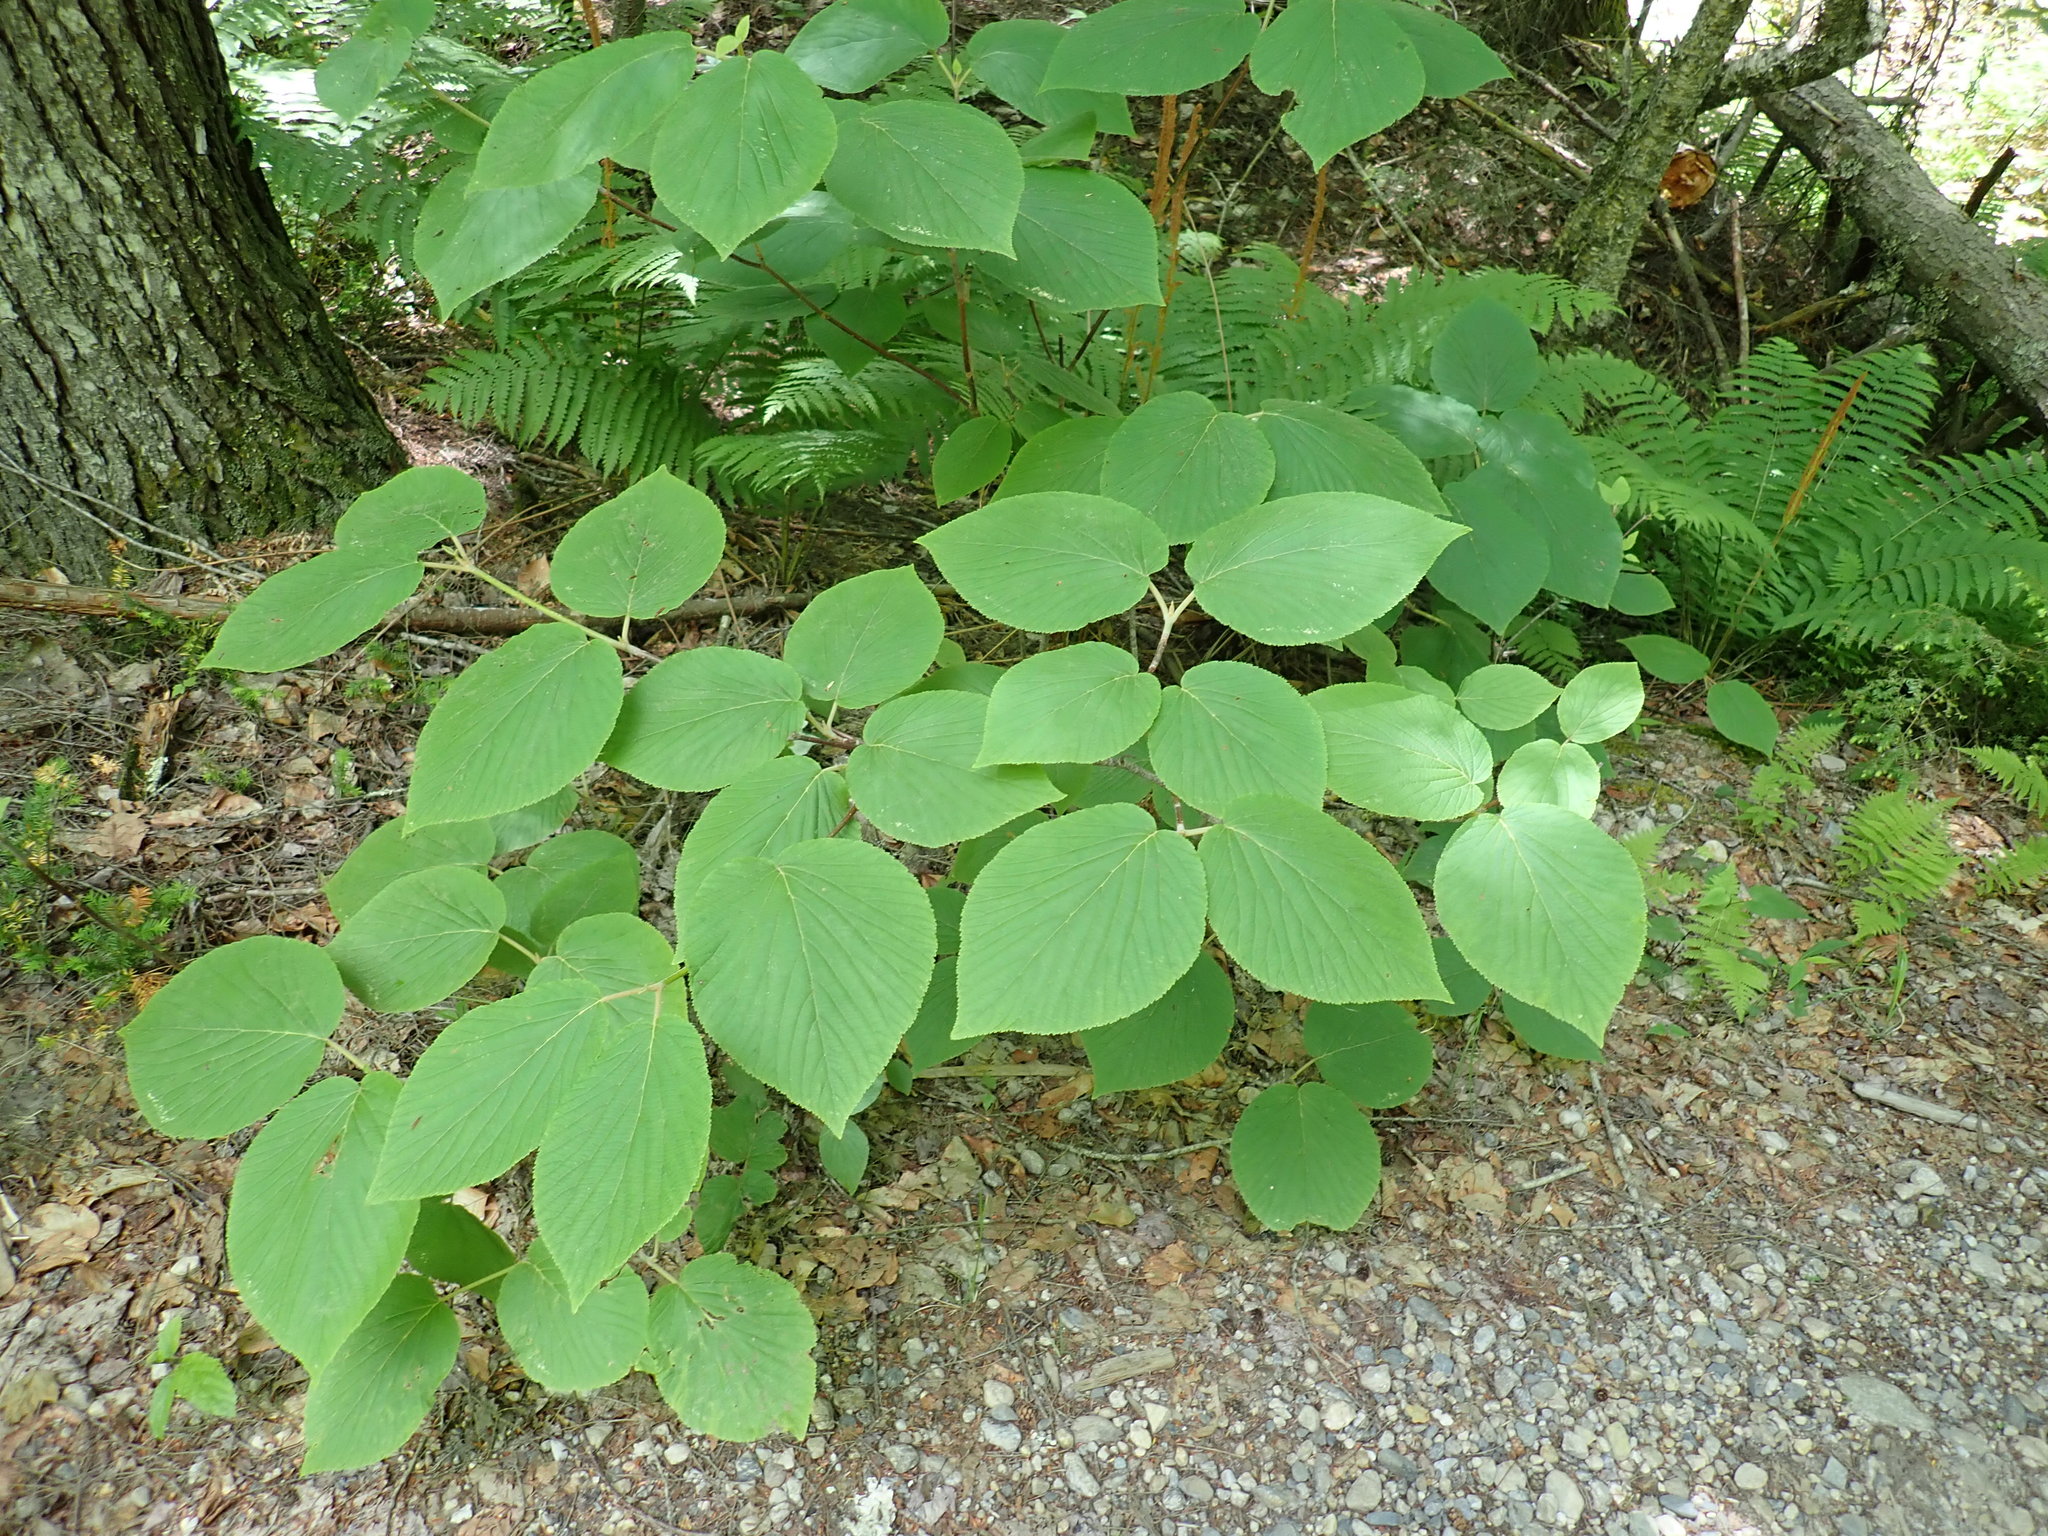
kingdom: Plantae
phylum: Tracheophyta
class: Magnoliopsida
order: Dipsacales
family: Viburnaceae
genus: Viburnum
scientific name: Viburnum lantanoides
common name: Hobblebush
